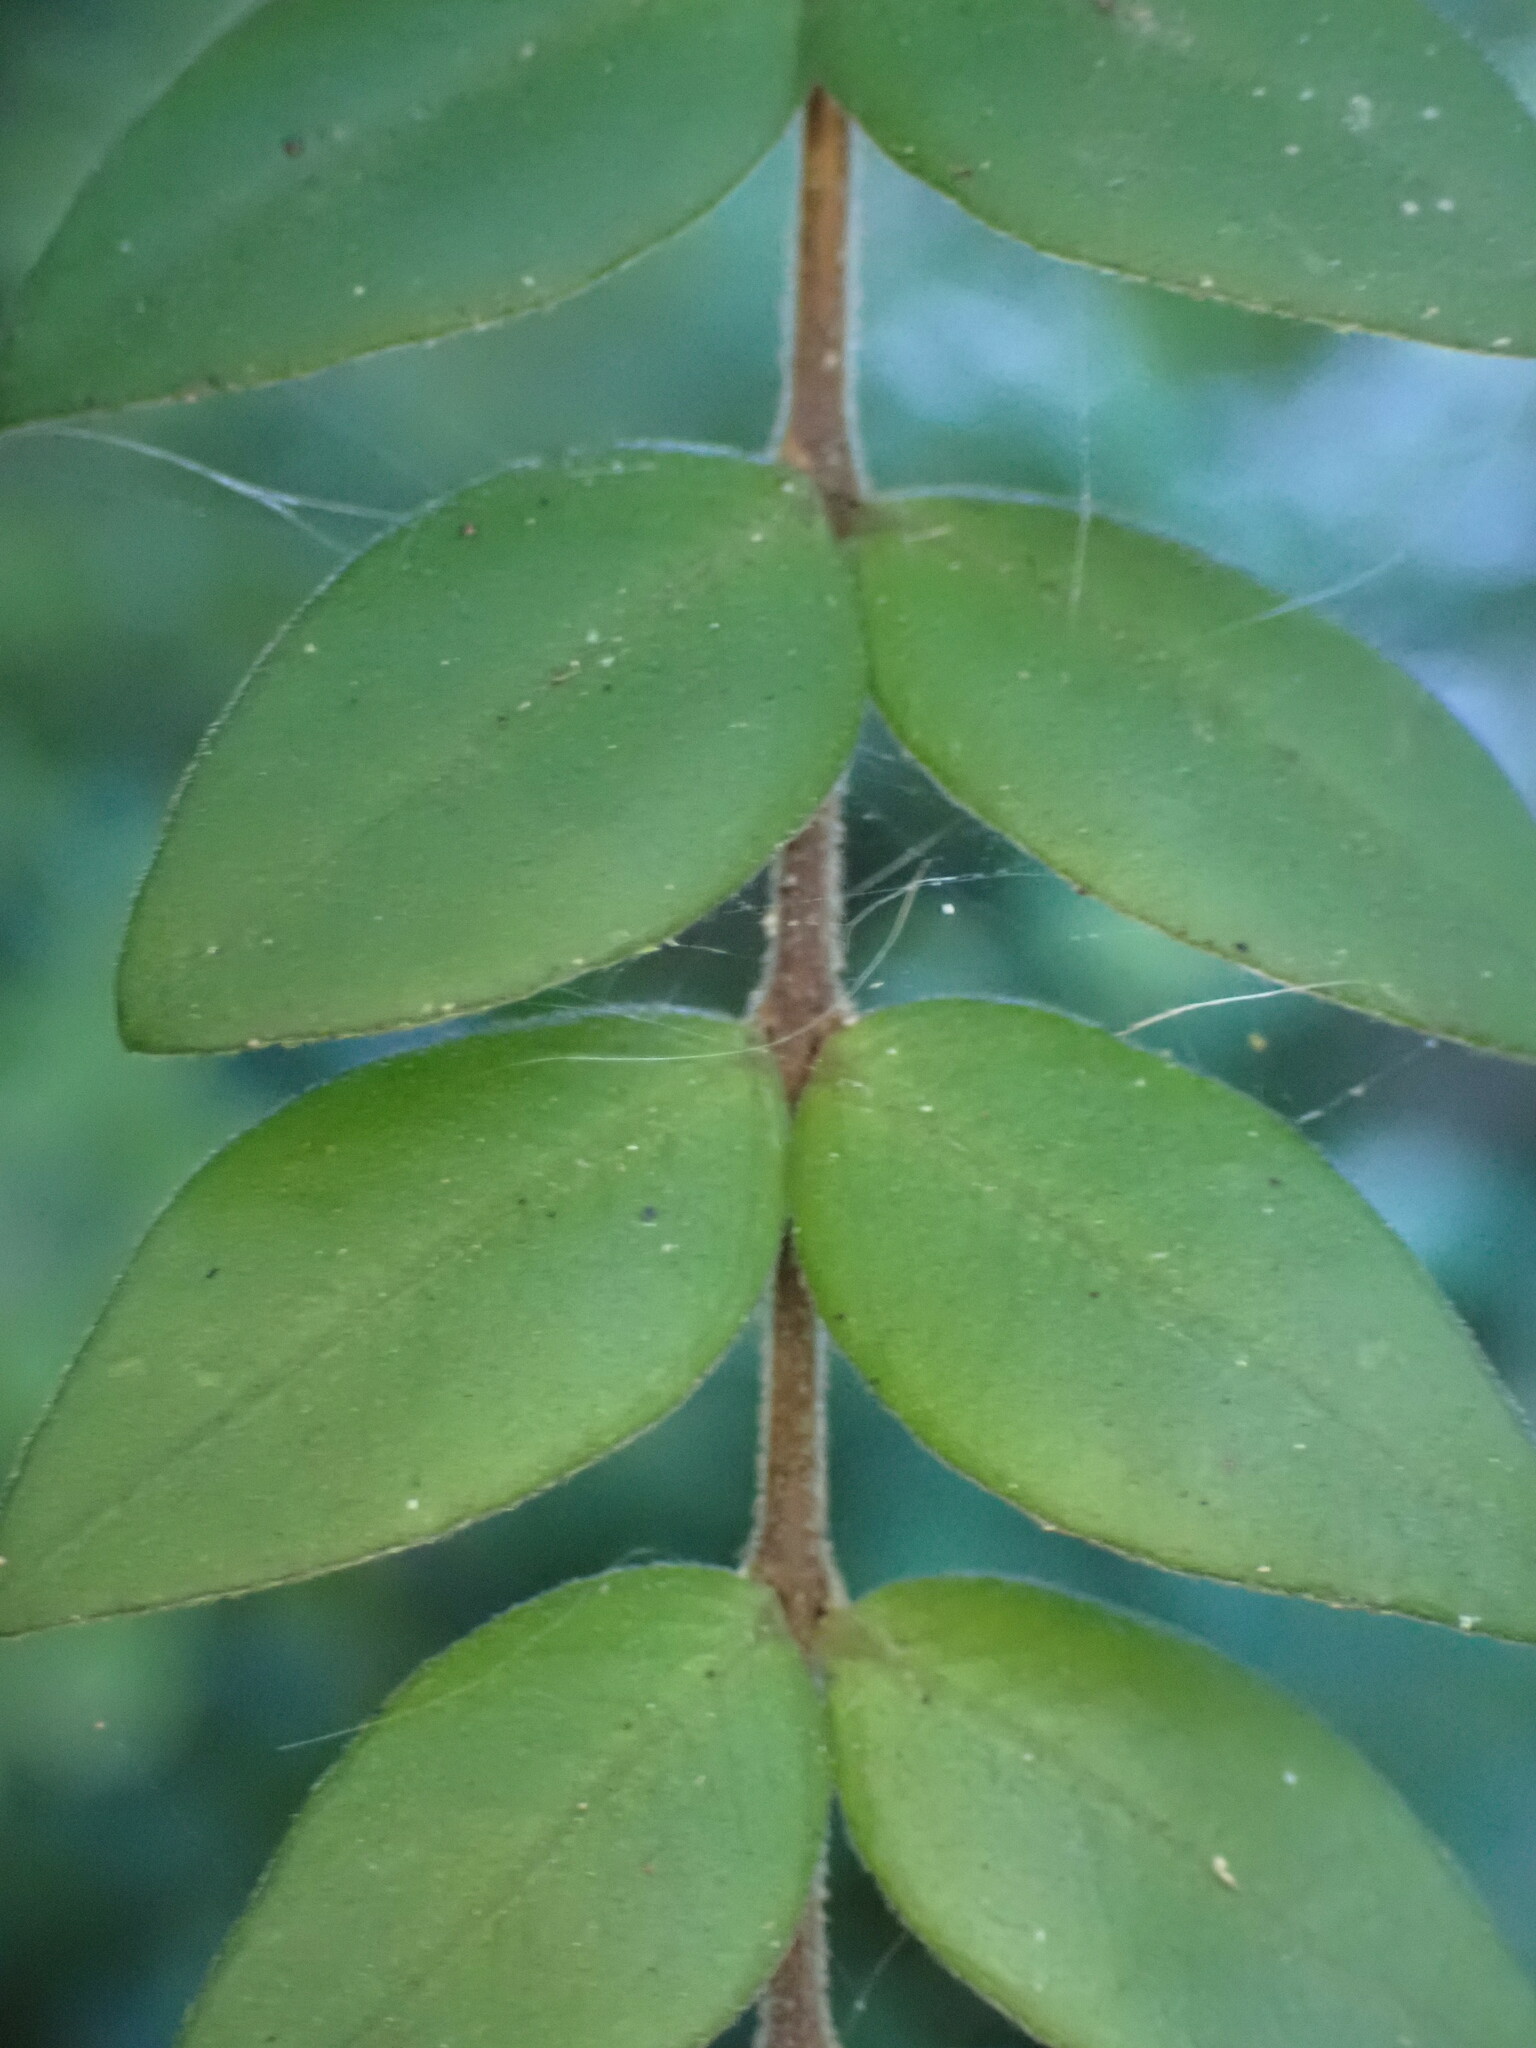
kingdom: Plantae
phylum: Tracheophyta
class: Magnoliopsida
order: Myrtales
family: Myrtaceae
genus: Metrosideros
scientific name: Metrosideros colensoi
